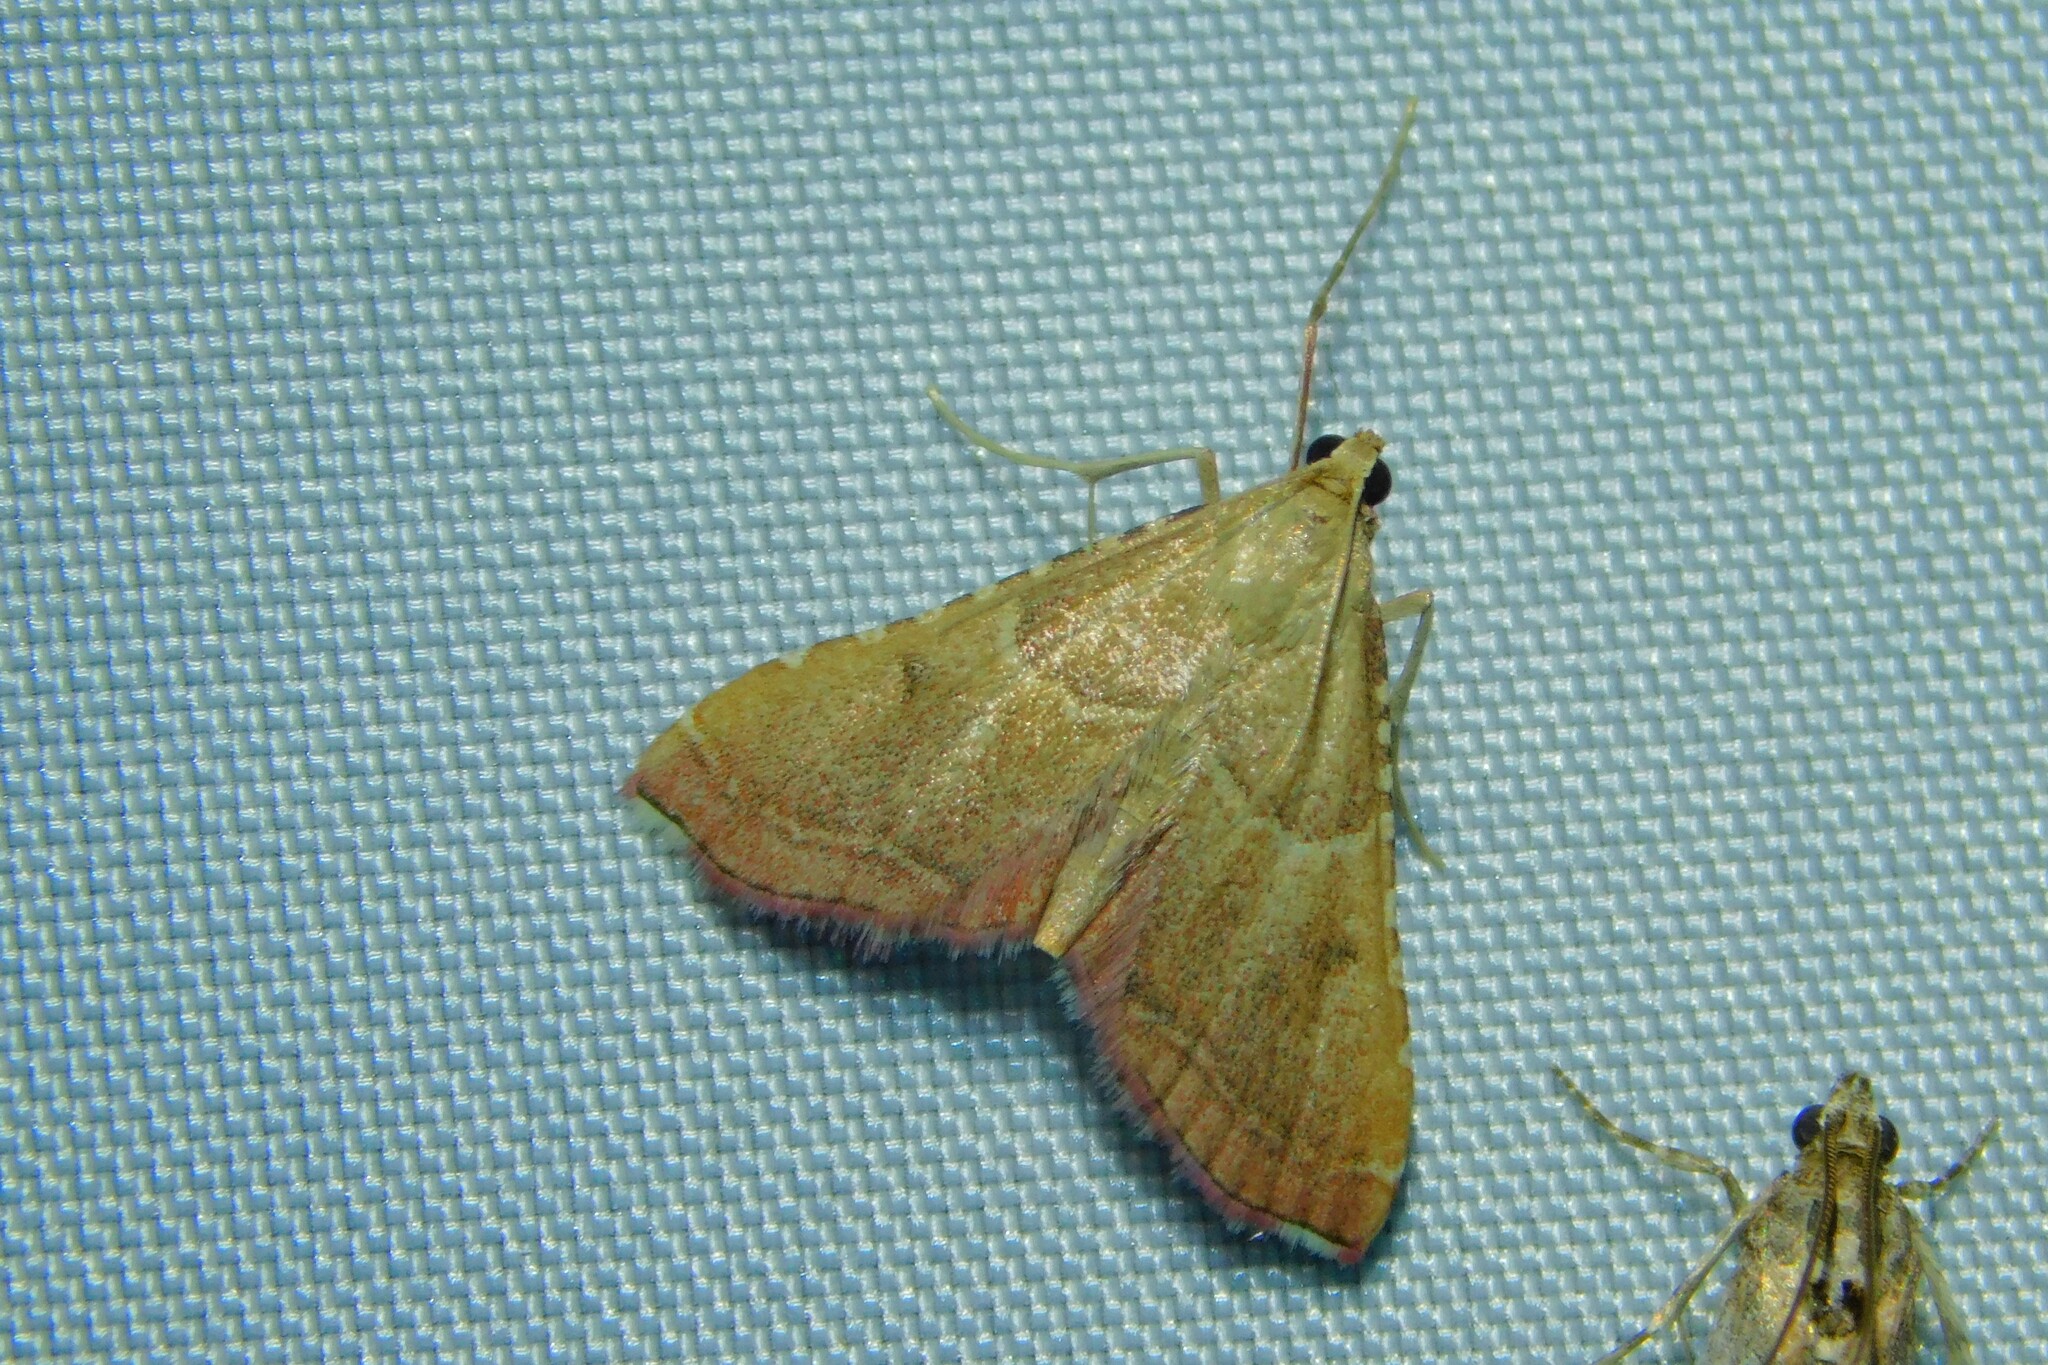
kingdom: Animalia
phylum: Arthropoda
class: Insecta
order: Lepidoptera
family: Pyralidae
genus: Endotricha
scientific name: Endotricha flammealis
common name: Rosy tabby
